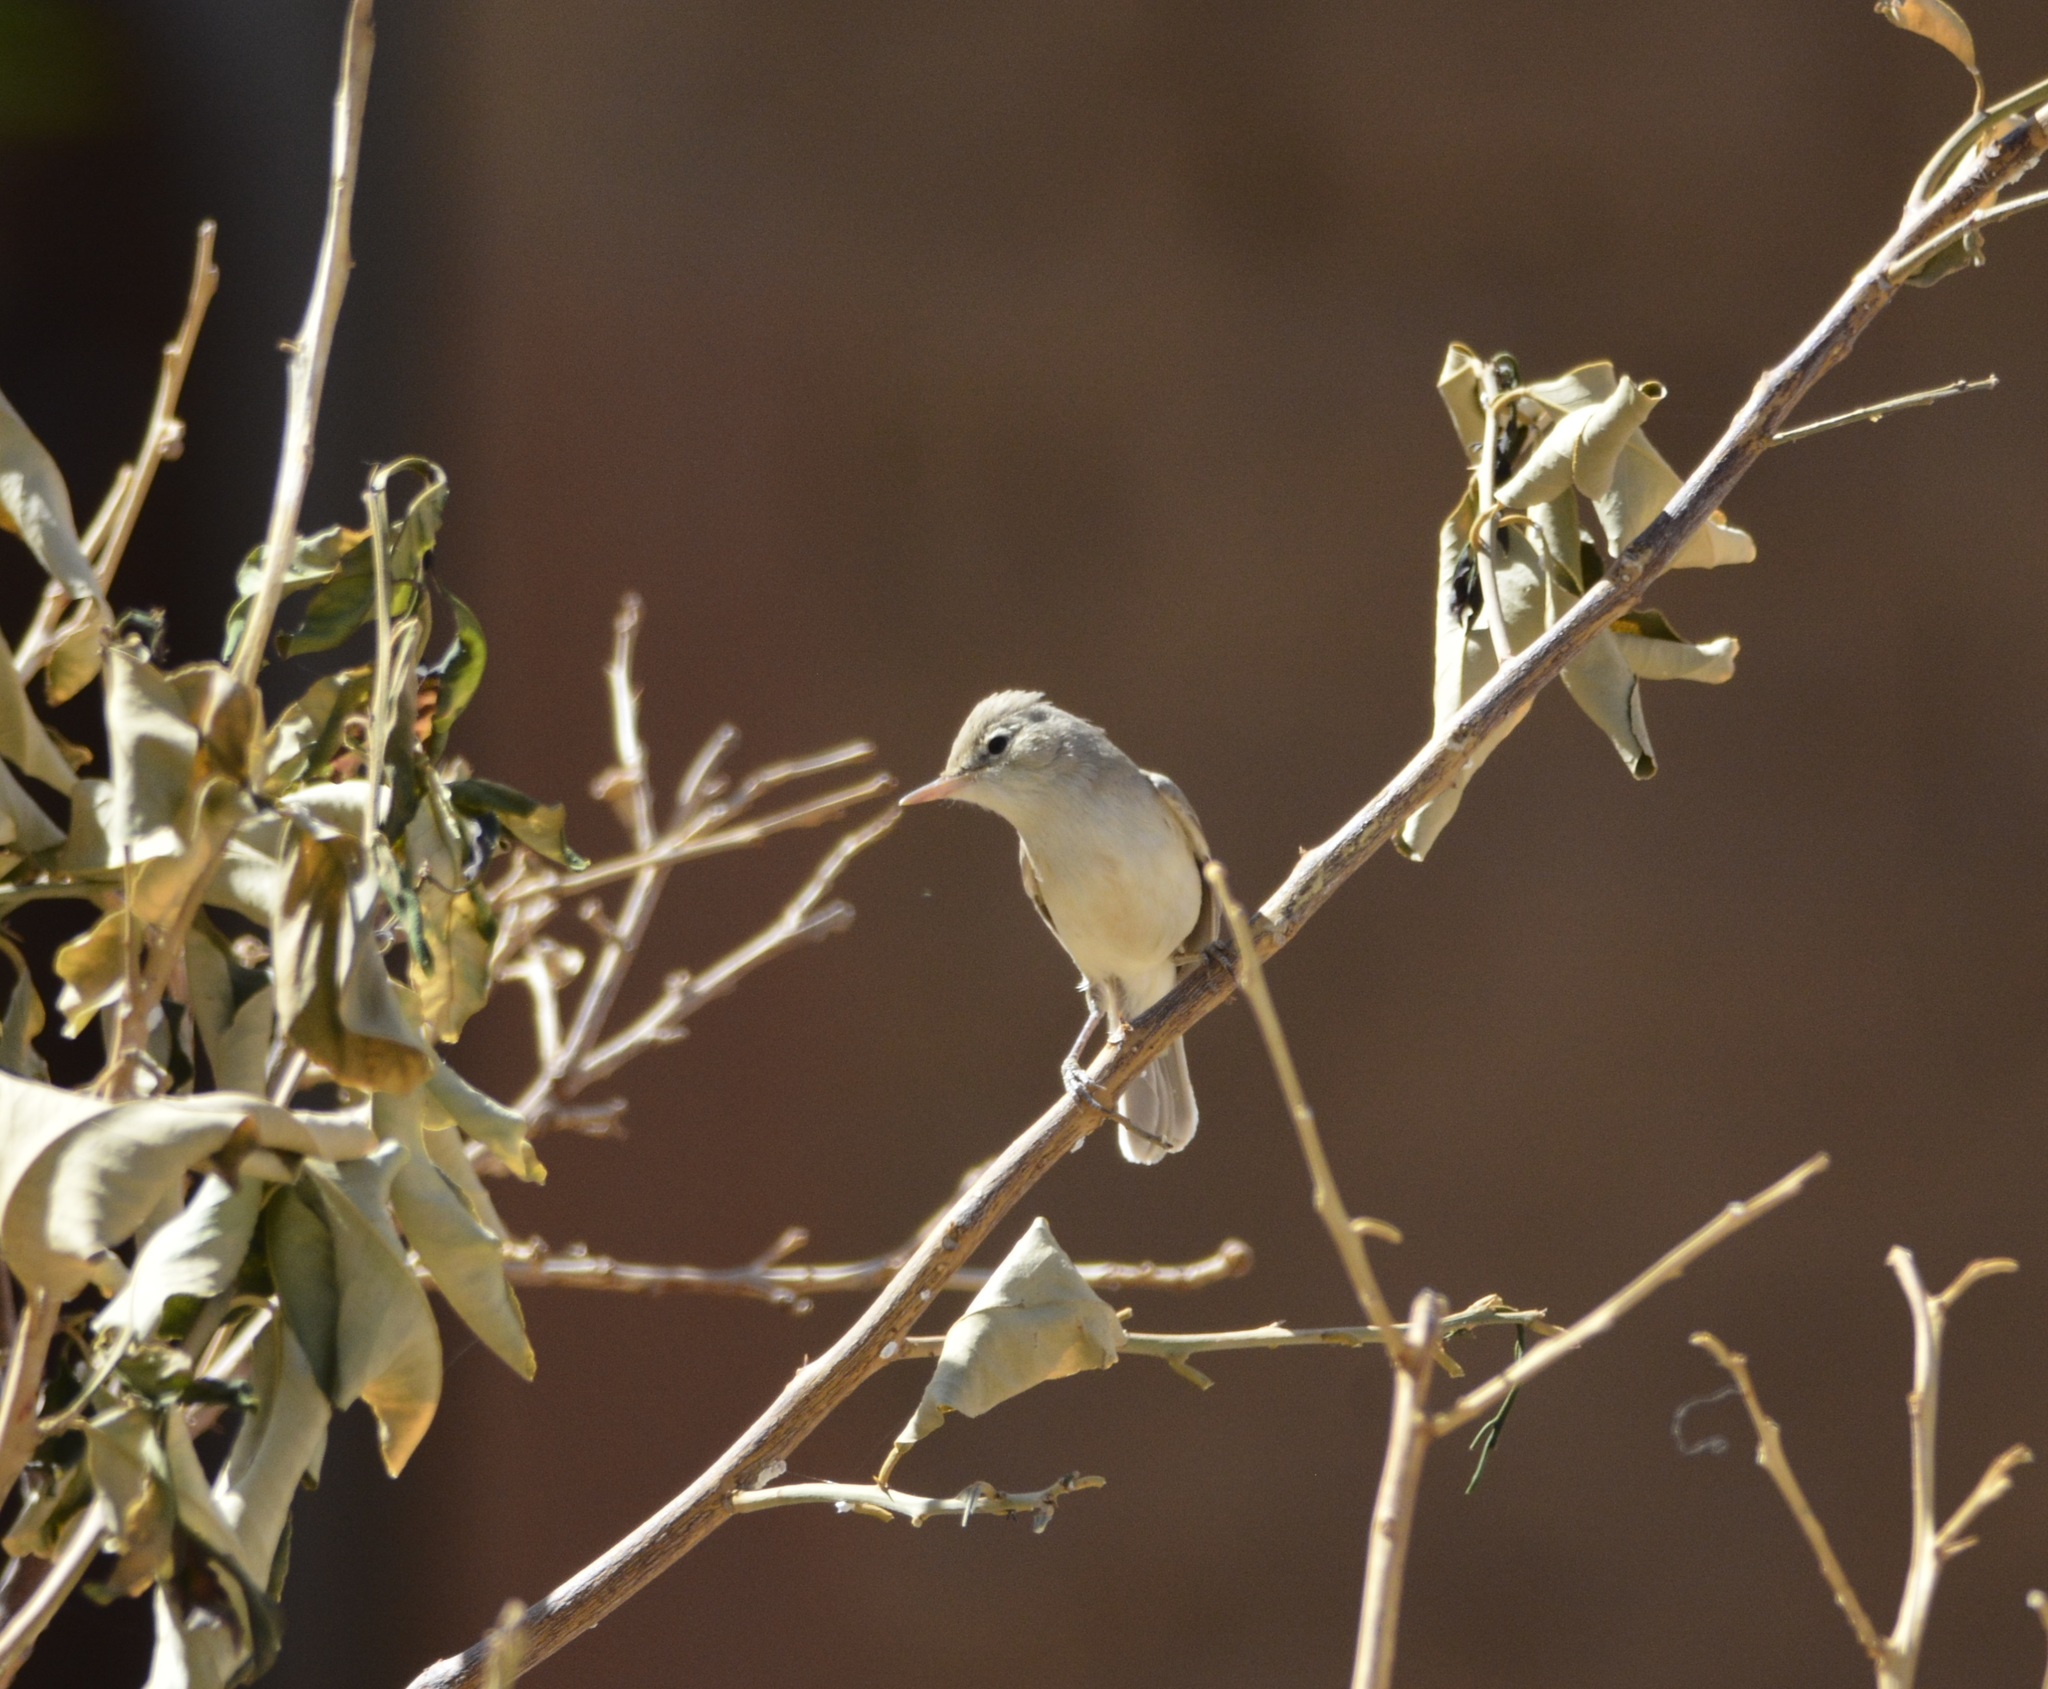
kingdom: Animalia
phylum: Chordata
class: Aves
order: Passeriformes
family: Acrocephalidae
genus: Iduna
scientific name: Iduna pallida
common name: Eastern olivaceous warbler
